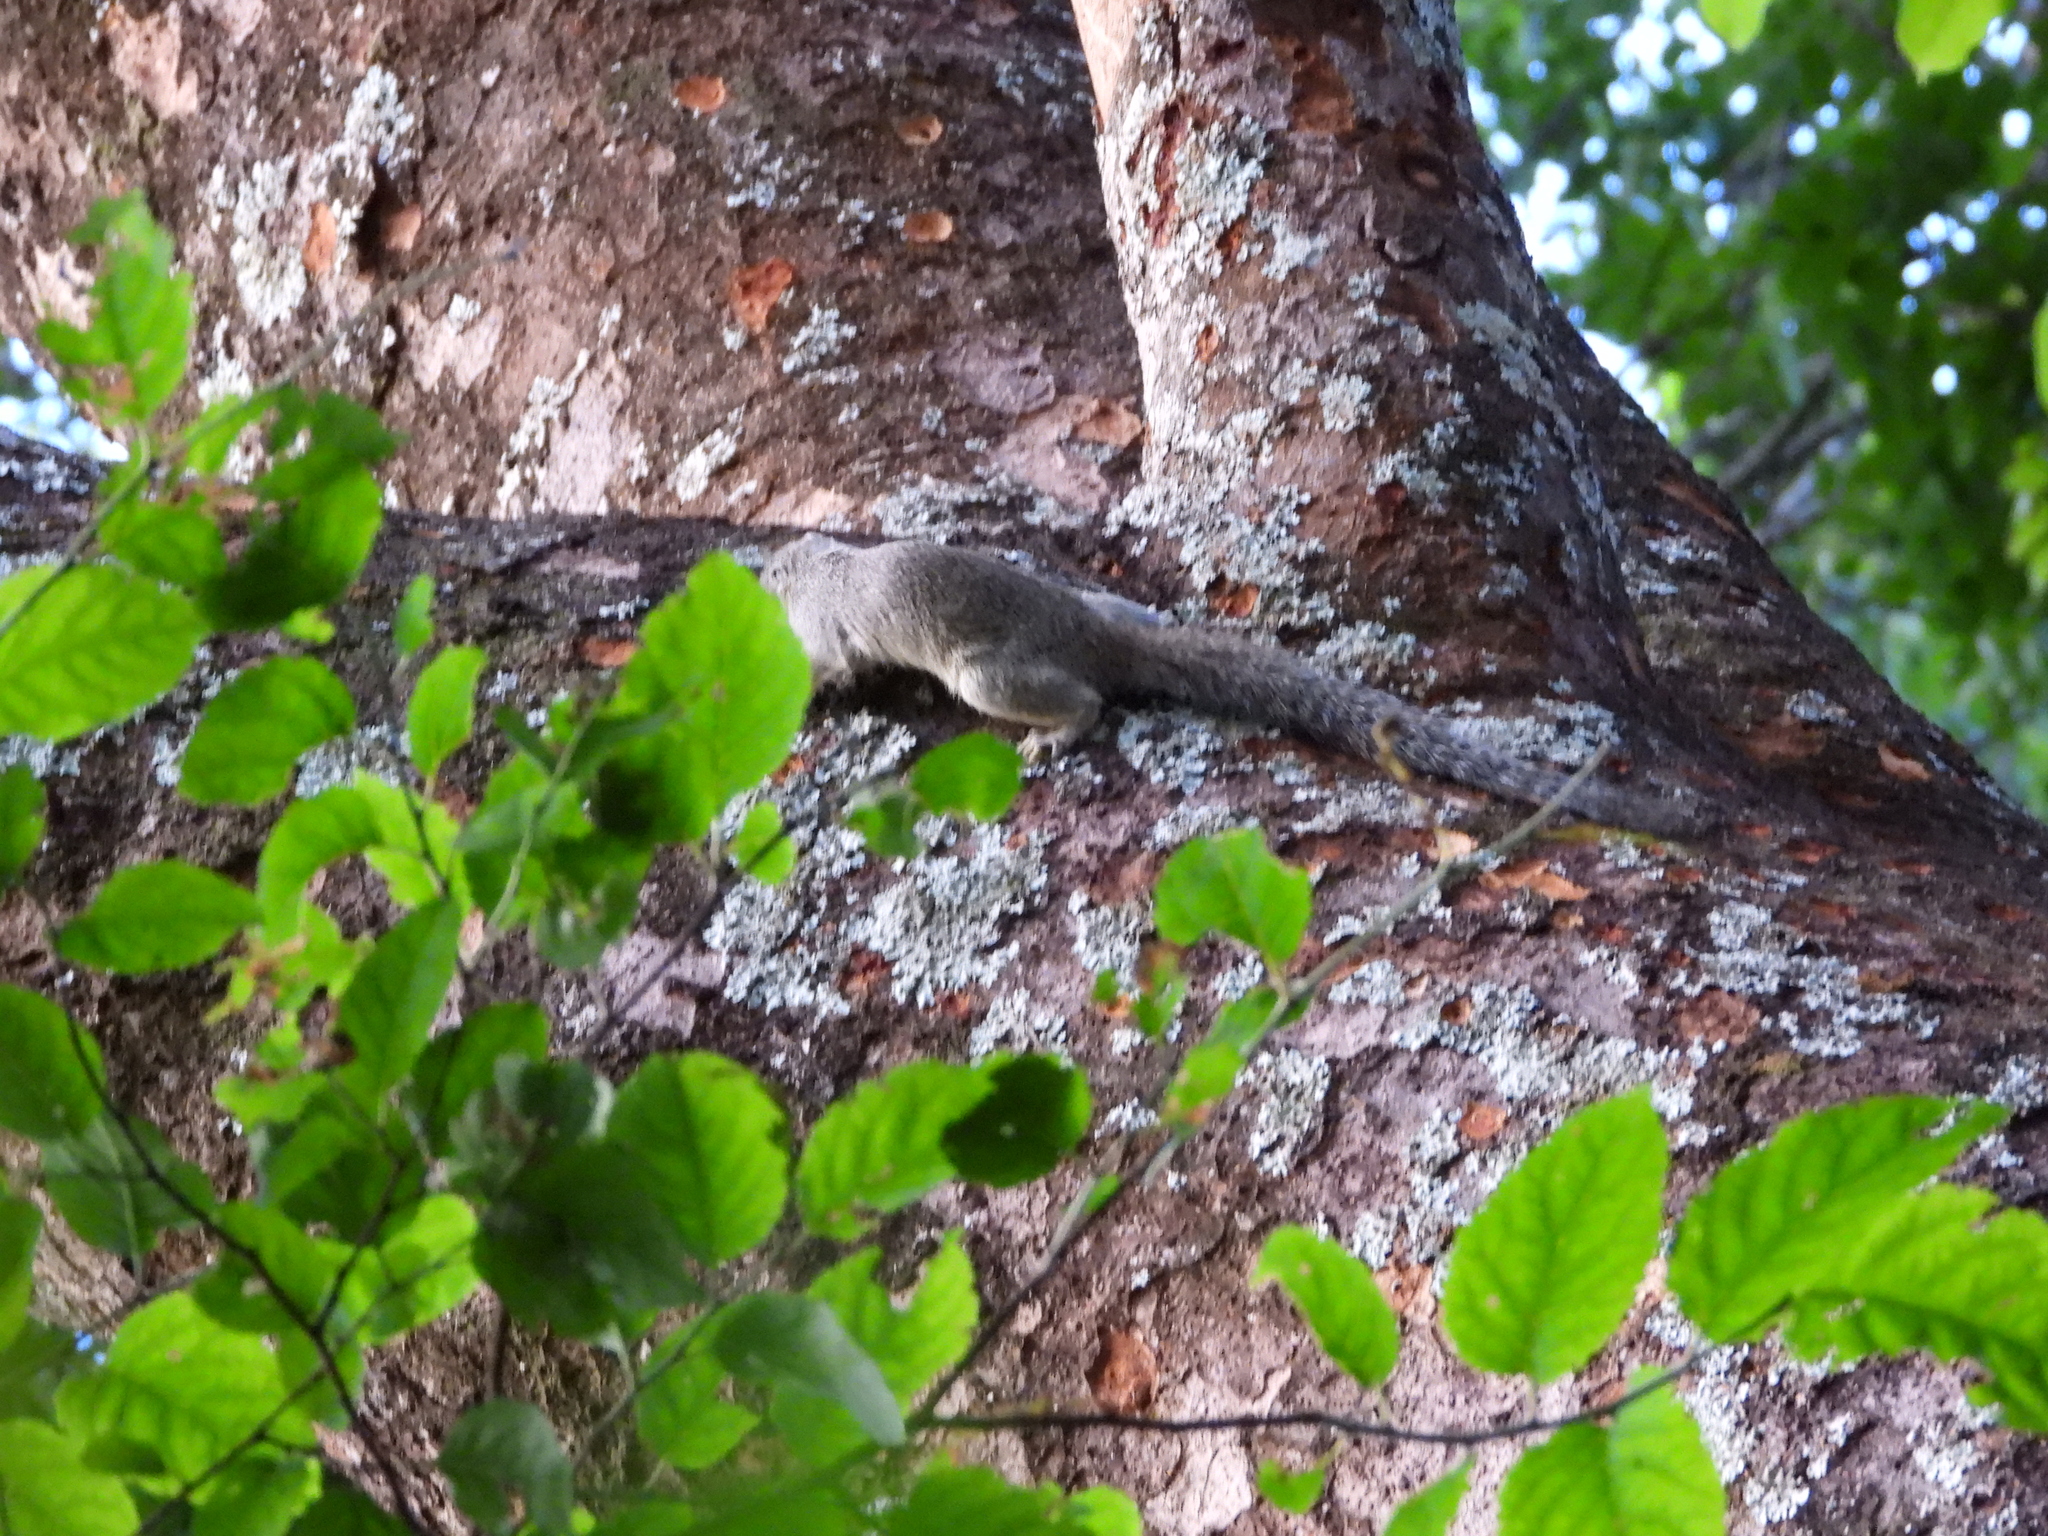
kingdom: Animalia
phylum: Chordata
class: Mammalia
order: Rodentia
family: Sciuridae
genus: Paraxerus
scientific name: Paraxerus cepapi
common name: Smith's bush squirrel
